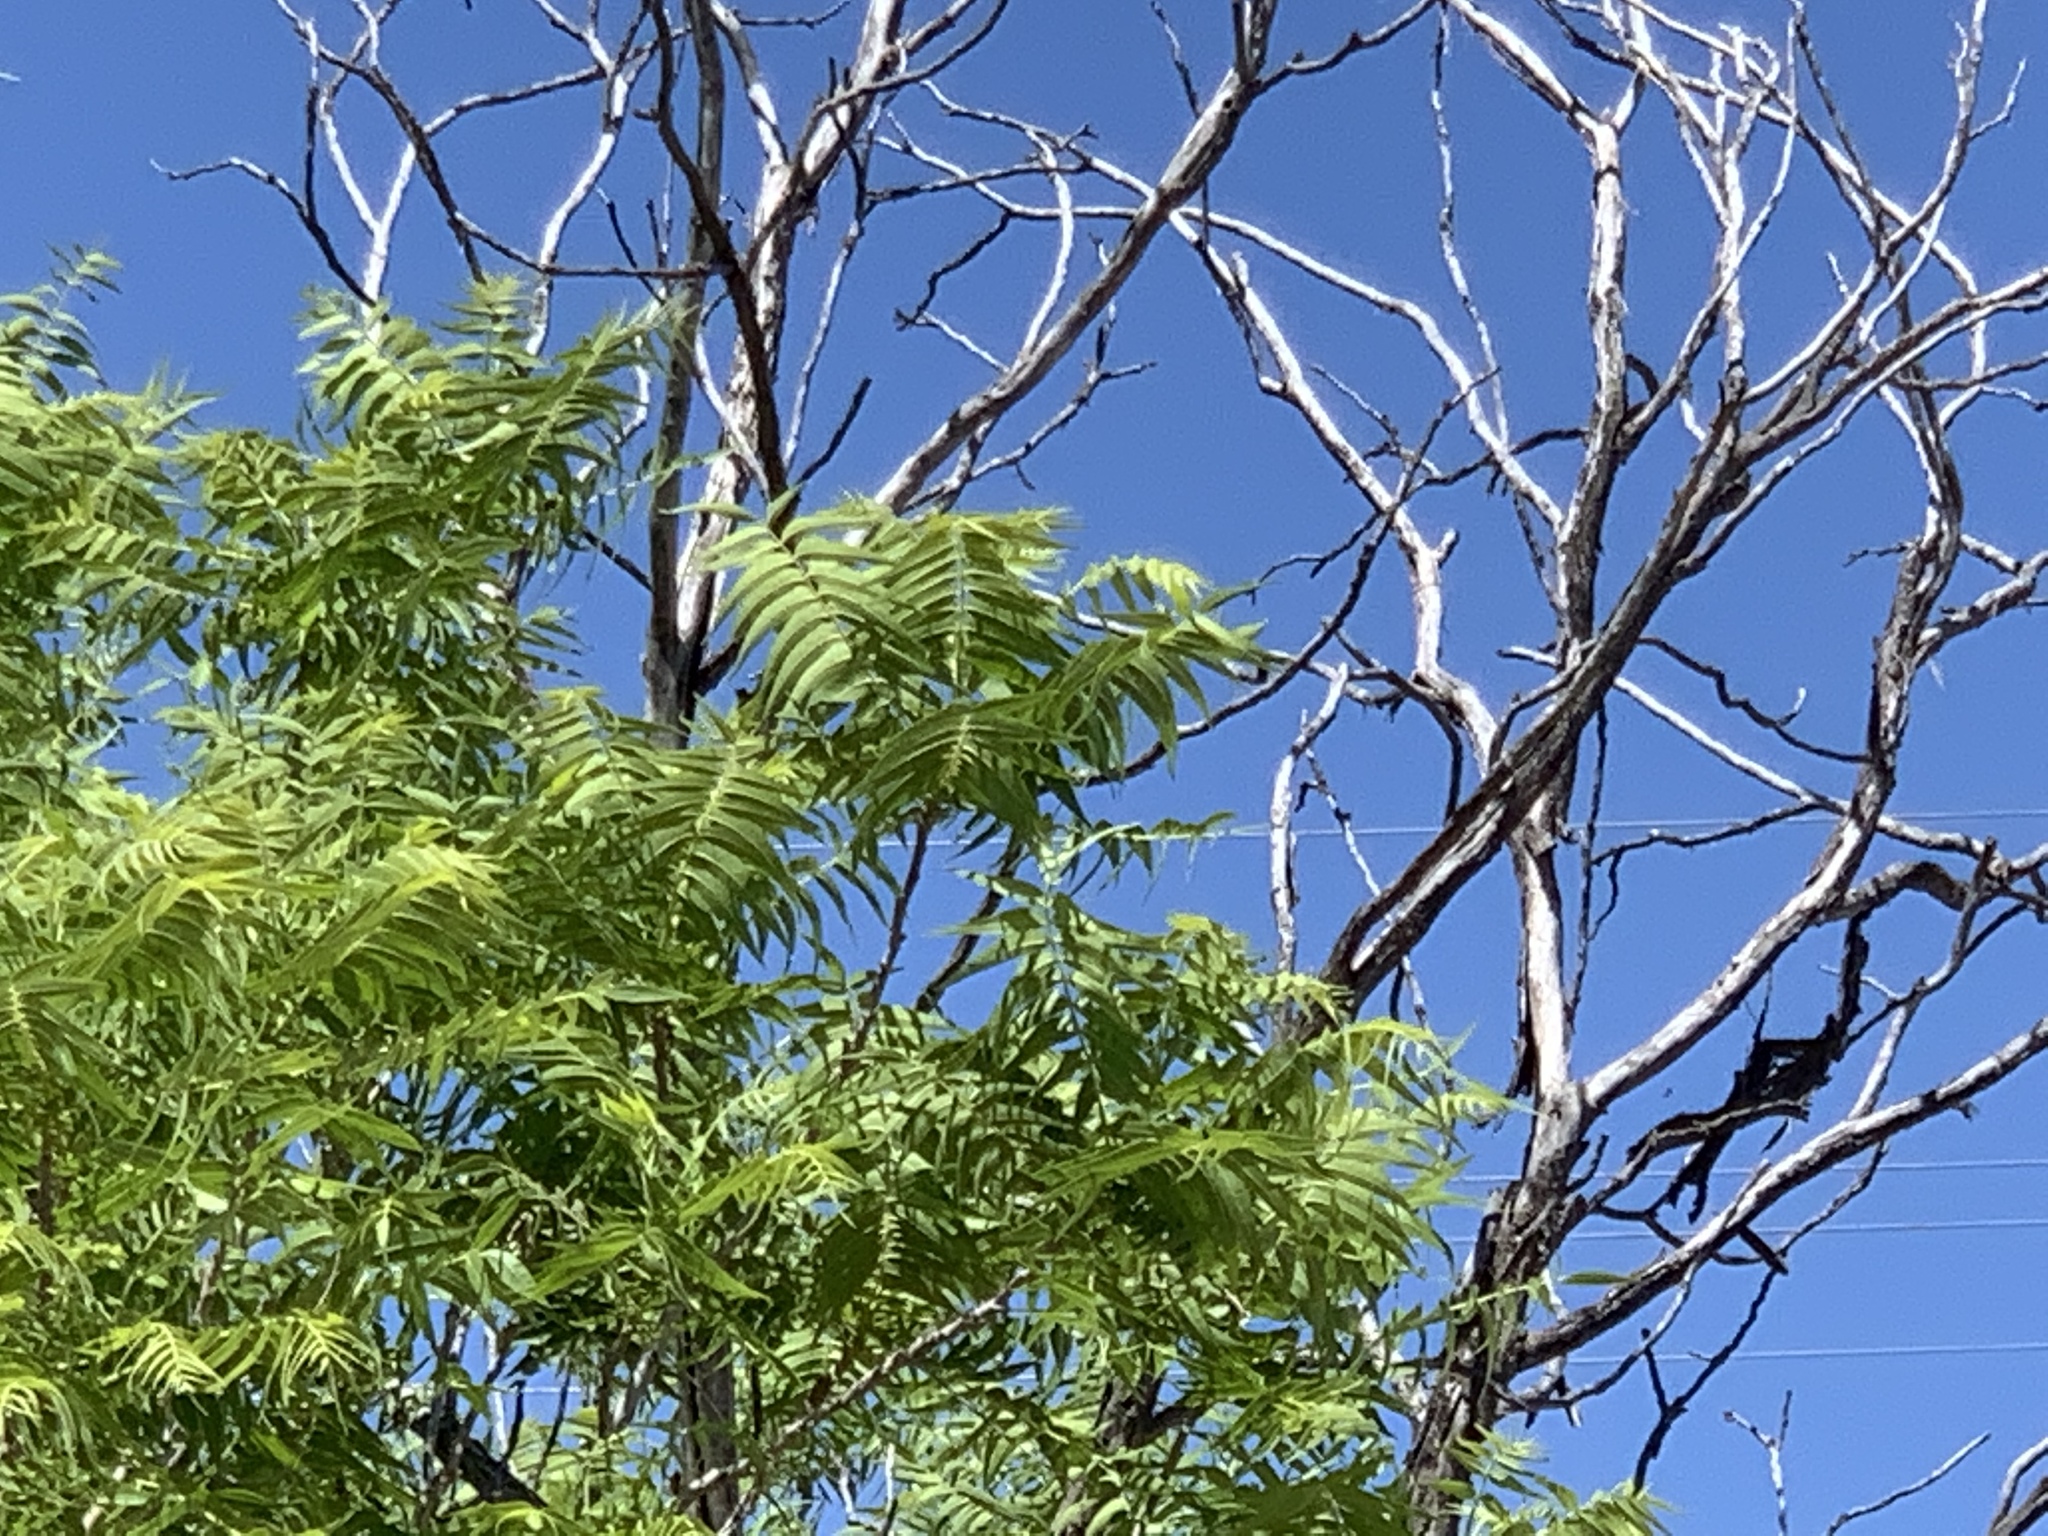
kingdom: Plantae
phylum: Tracheophyta
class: Magnoliopsida
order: Fagales
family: Juglandaceae
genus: Juglans
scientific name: Juglans microcarpa
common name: Texas walnut
